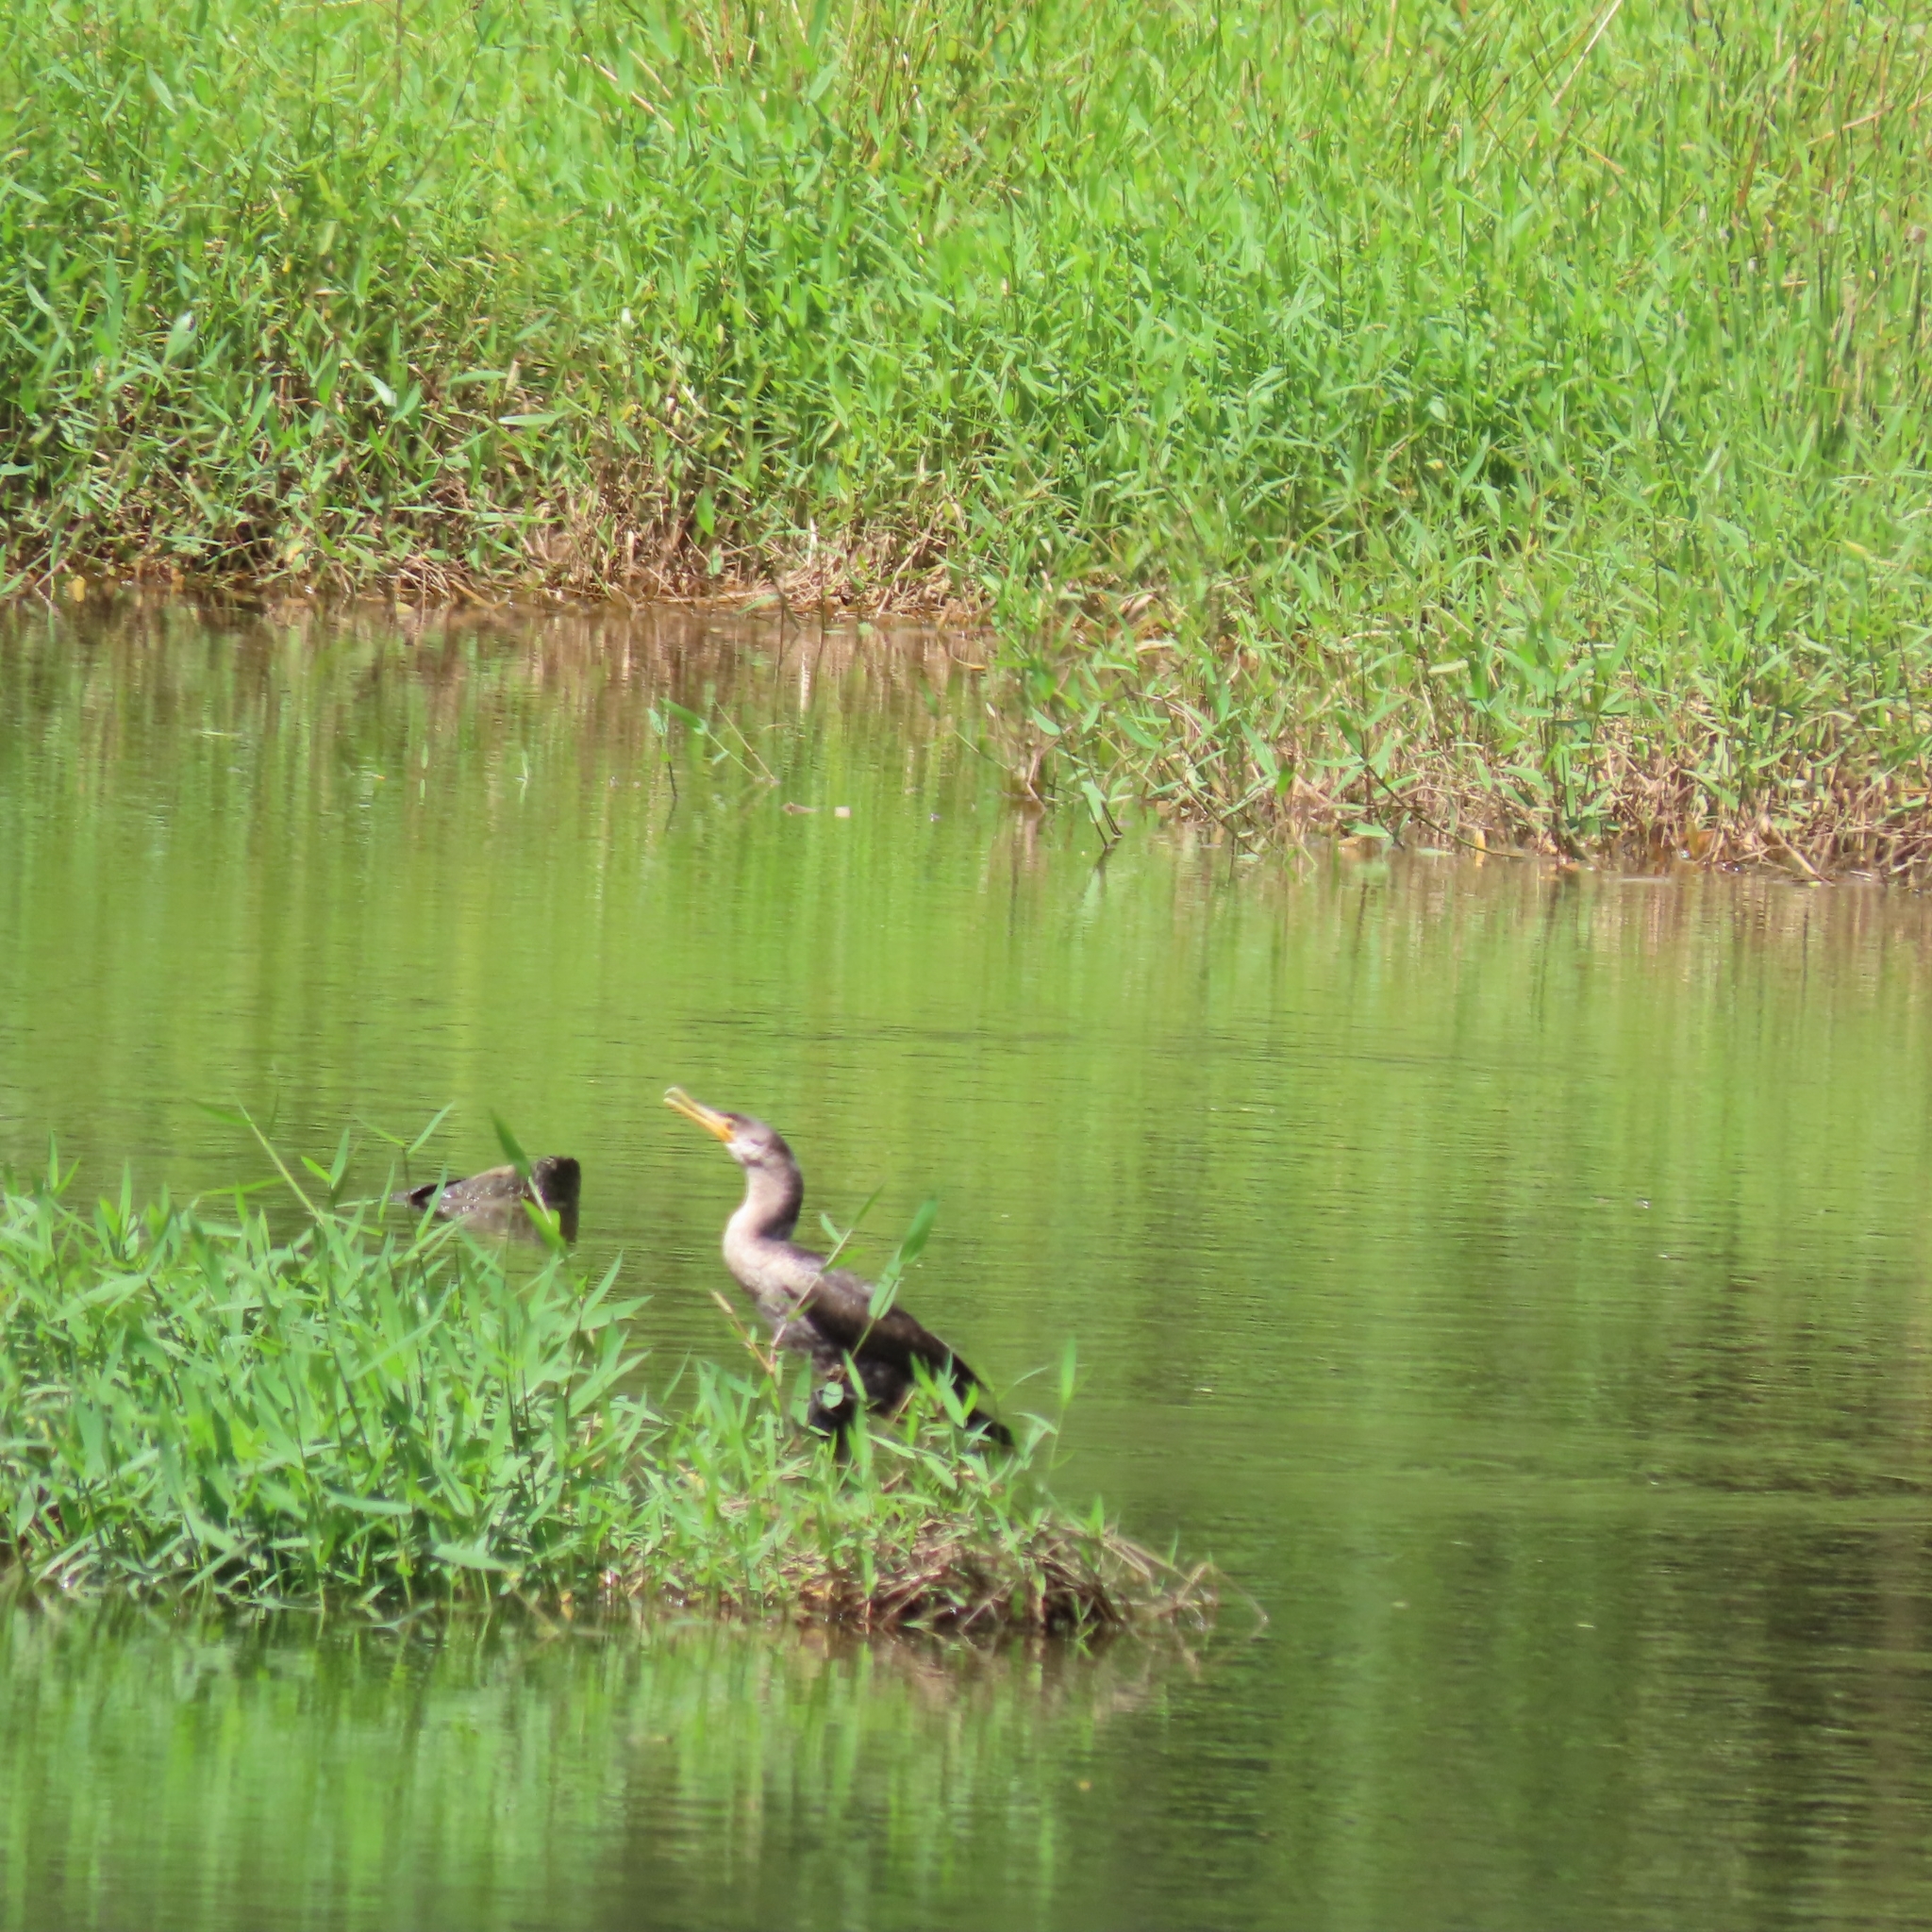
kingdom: Animalia
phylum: Chordata
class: Aves
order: Suliformes
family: Phalacrocoracidae
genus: Phalacrocorax
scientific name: Phalacrocorax brasilianus
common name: Neotropic cormorant
